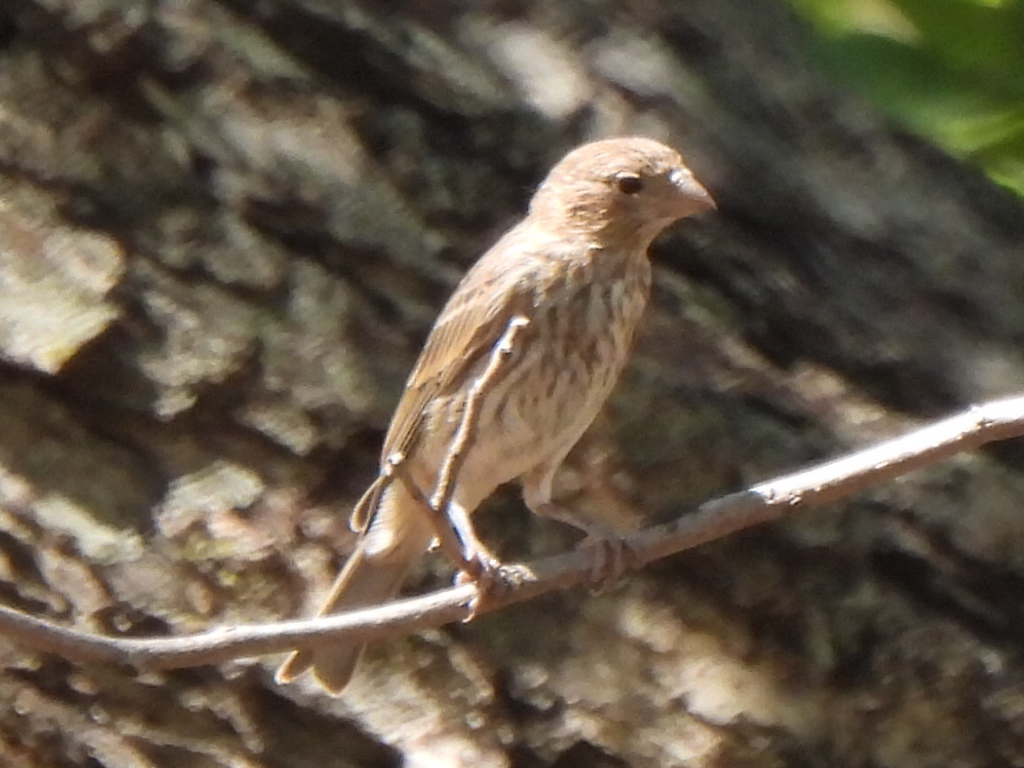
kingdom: Animalia
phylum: Chordata
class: Aves
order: Passeriformes
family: Fringillidae
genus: Haemorhous
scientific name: Haemorhous mexicanus
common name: House finch
